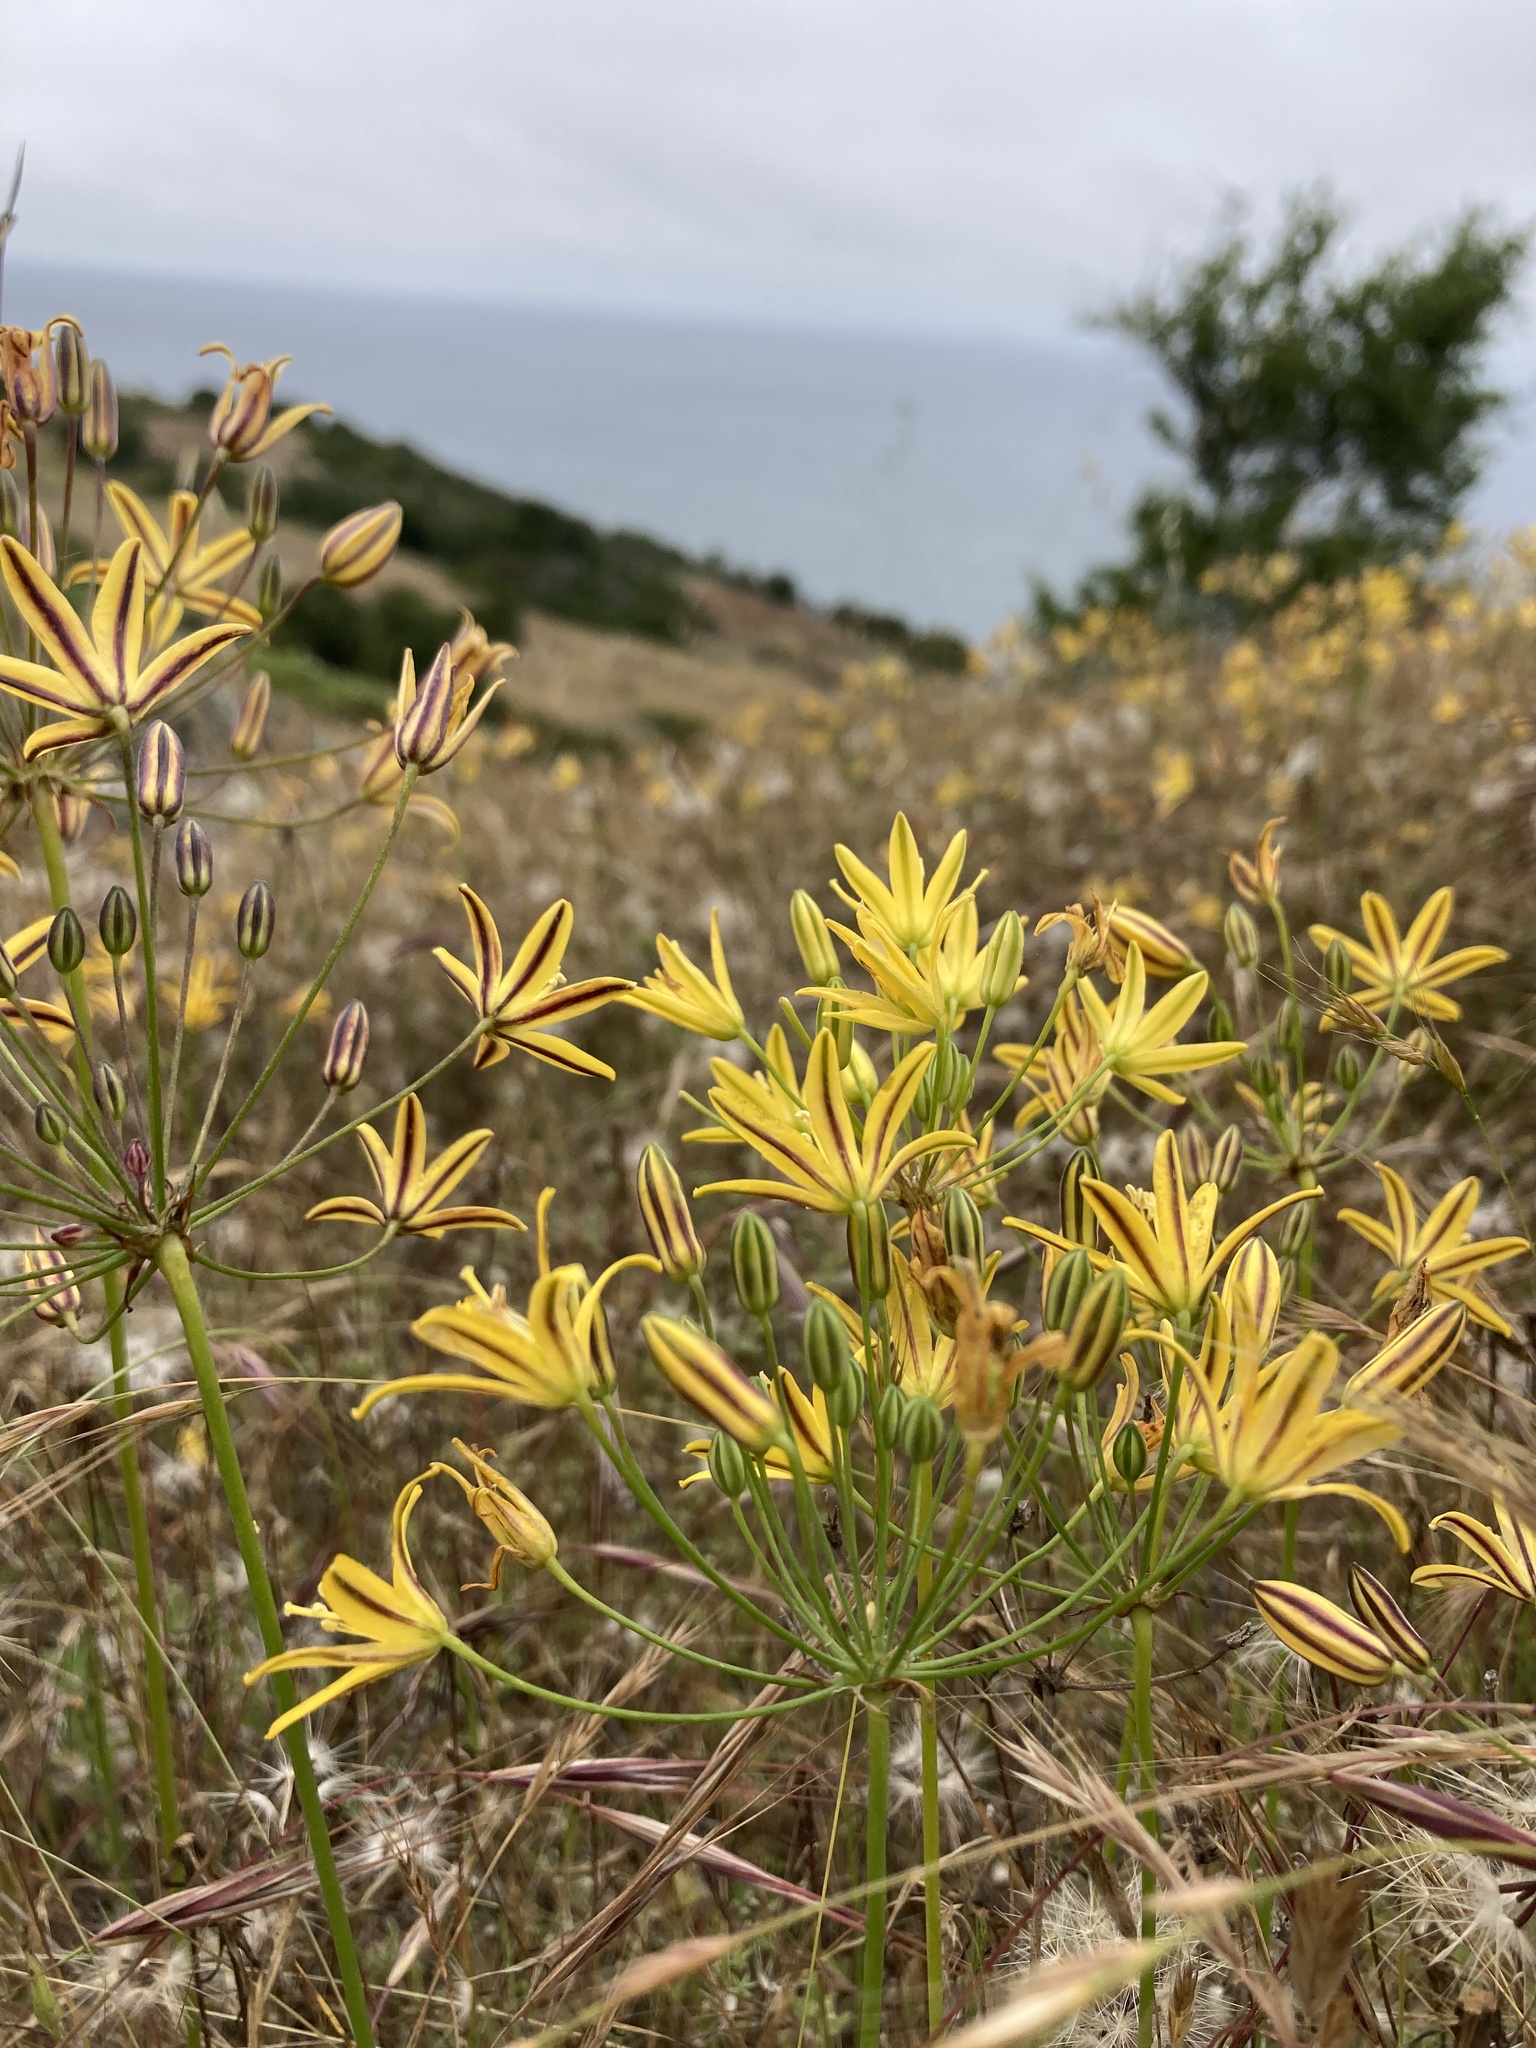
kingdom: Plantae
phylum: Tracheophyta
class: Liliopsida
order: Asparagales
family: Asparagaceae
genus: Bloomeria
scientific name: Bloomeria crocea
